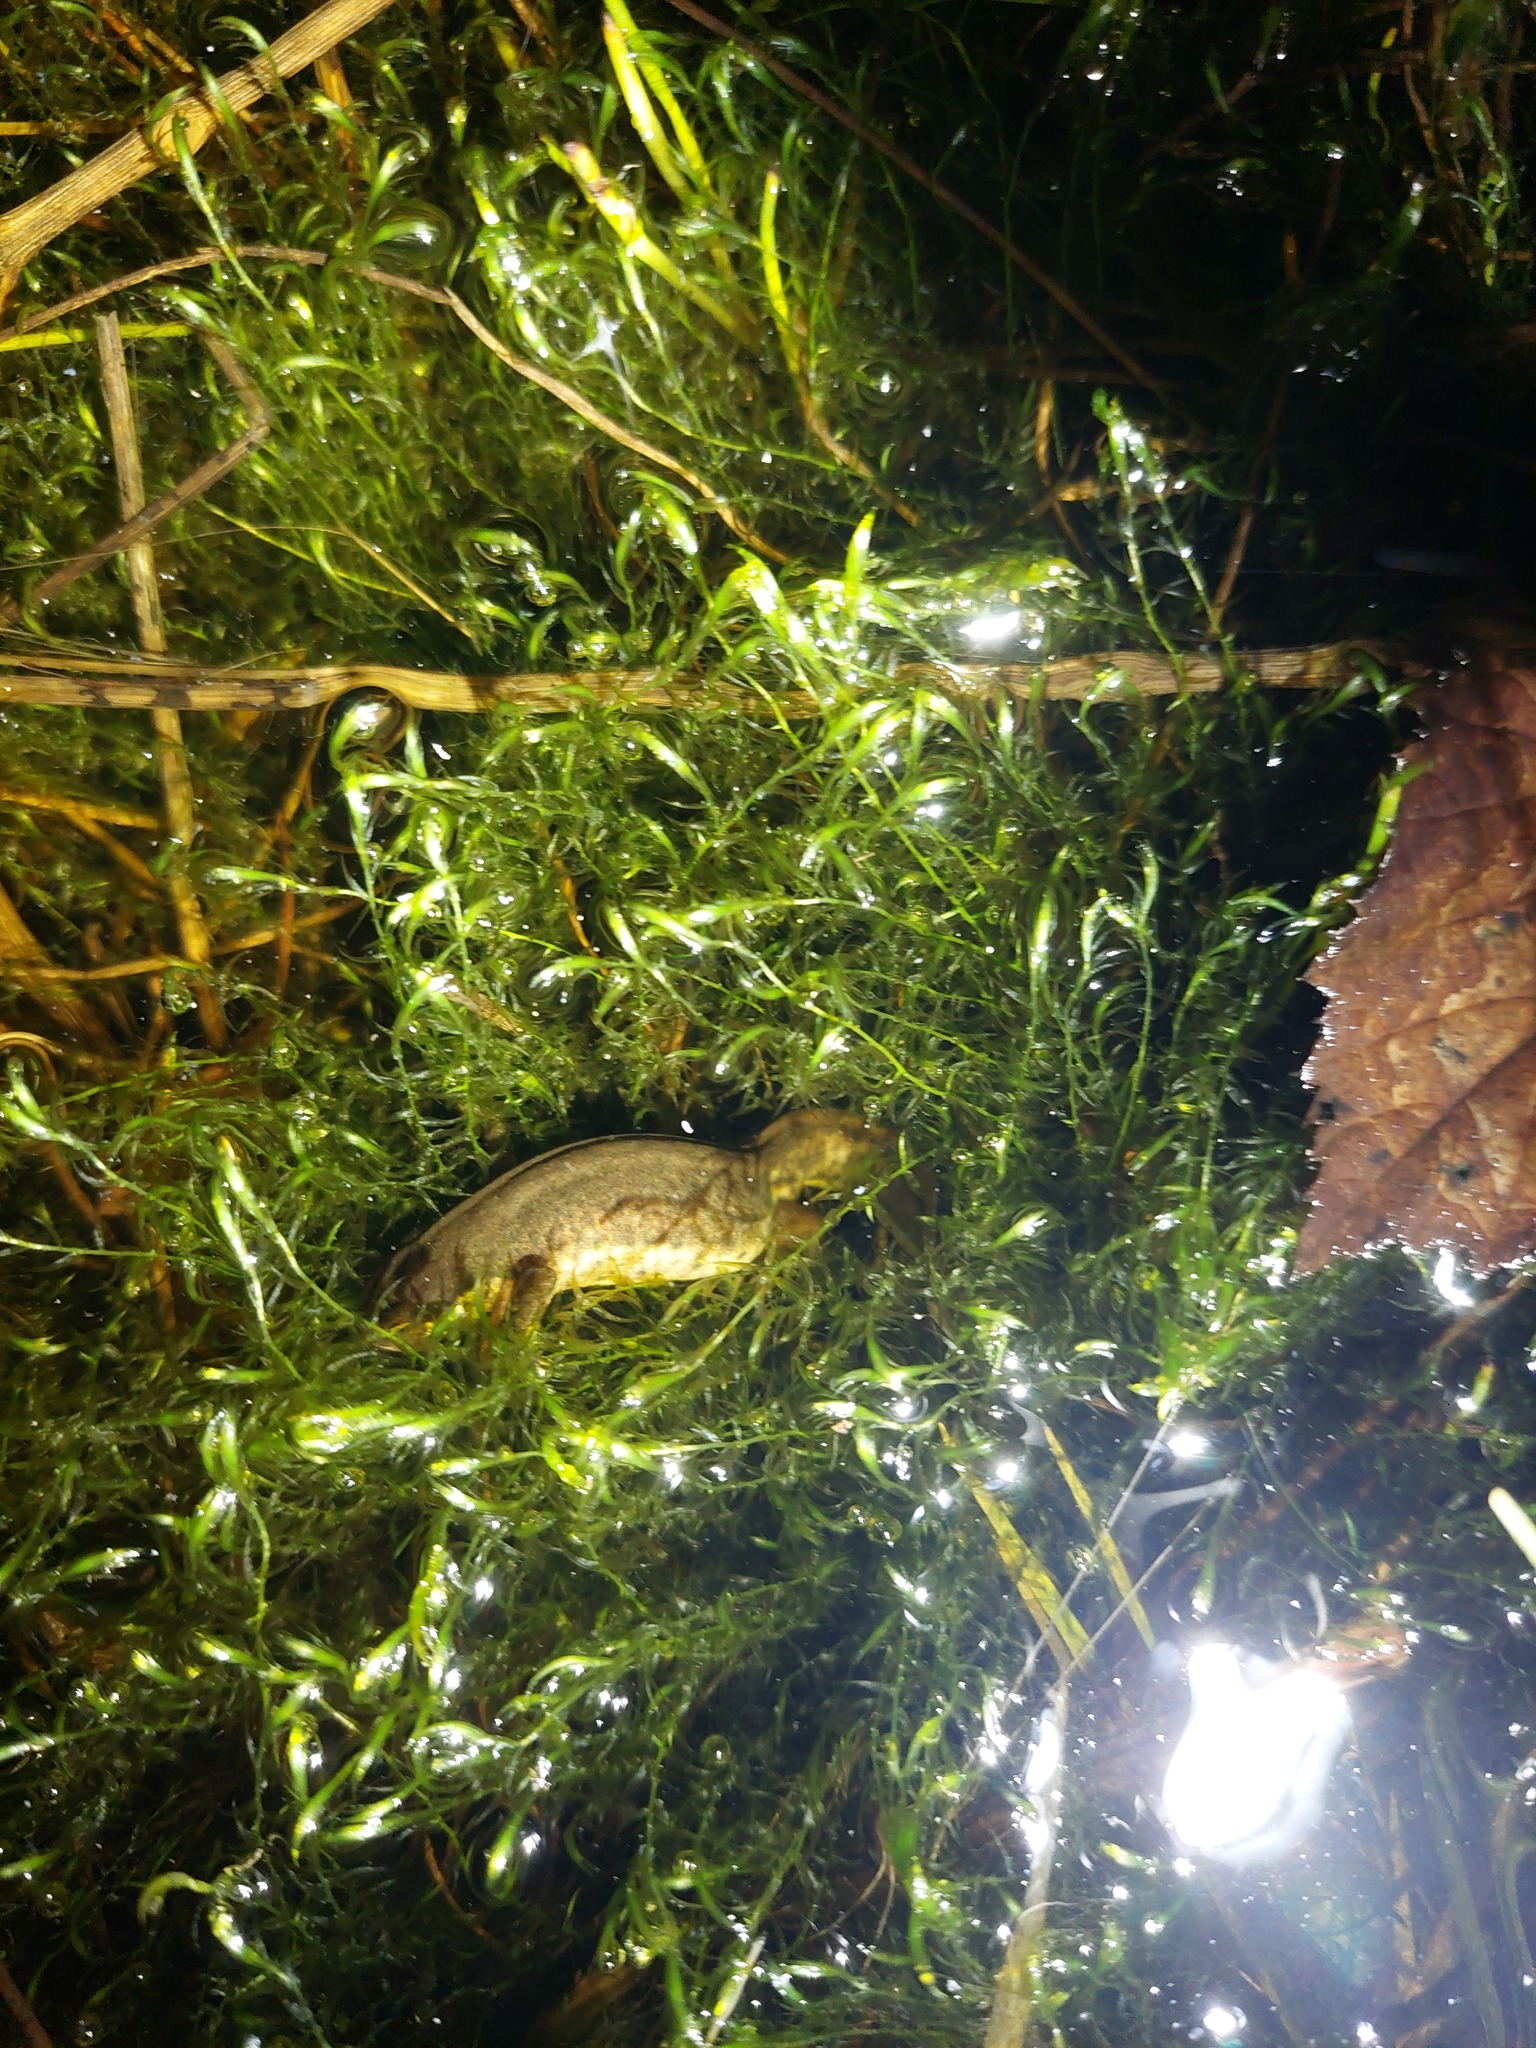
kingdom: Animalia
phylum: Chordata
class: Amphibia
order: Caudata
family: Salamandridae
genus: Lissotriton
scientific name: Lissotriton helveticus
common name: Palmate newt
